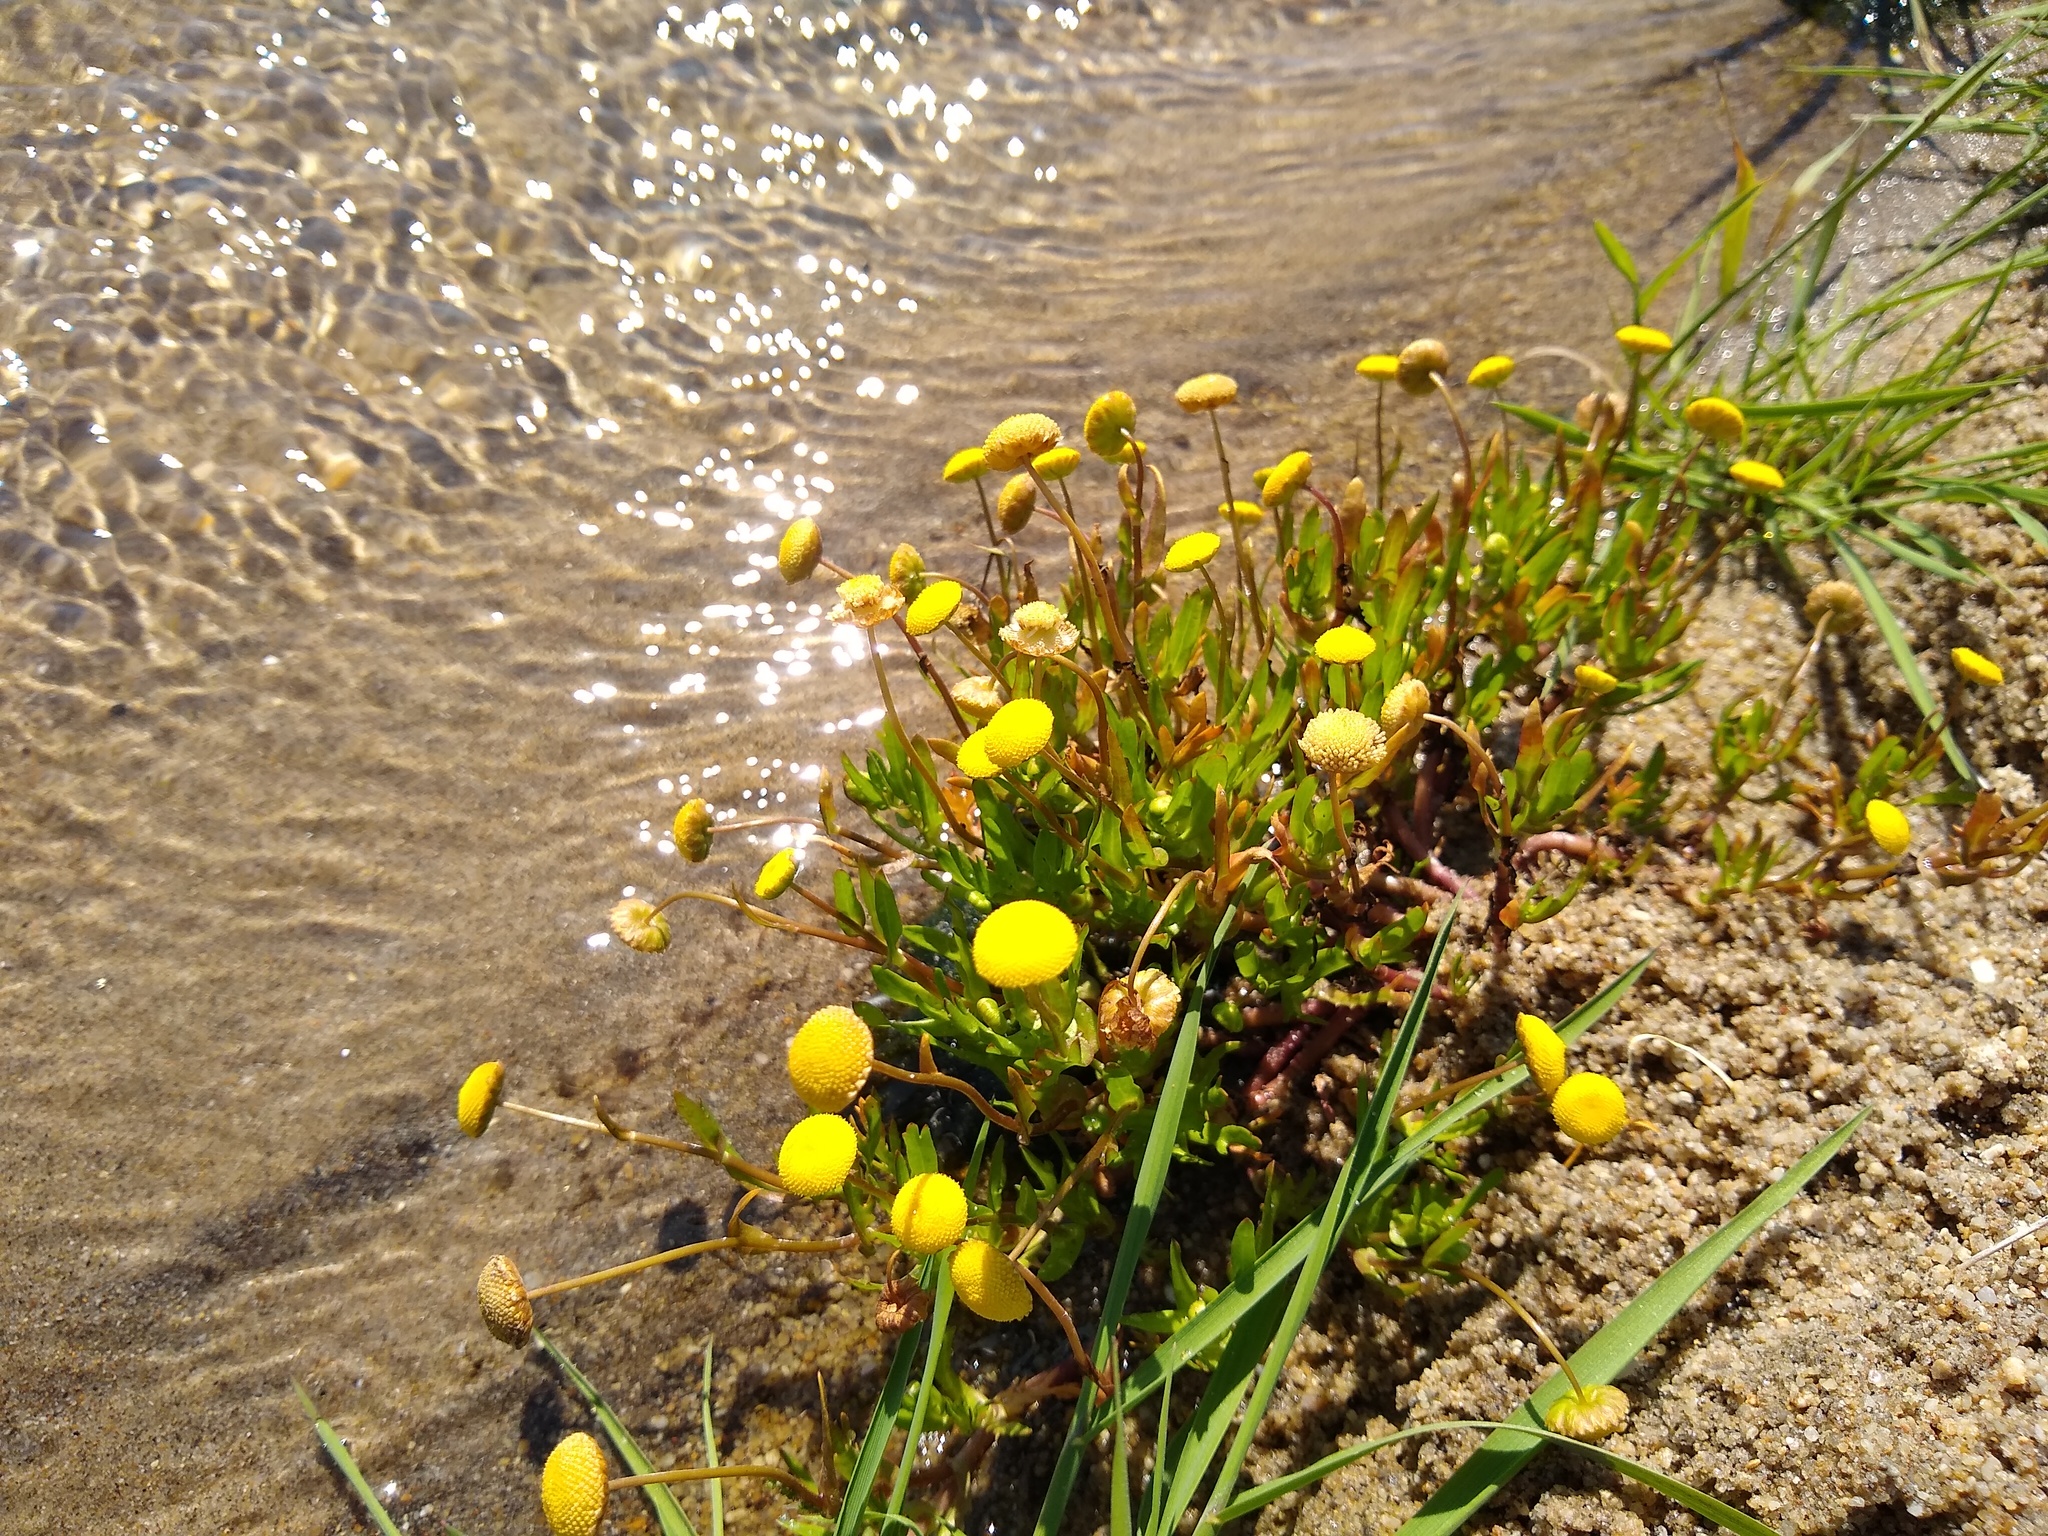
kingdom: Plantae
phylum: Tracheophyta
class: Magnoliopsida
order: Asterales
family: Asteraceae
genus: Cotula
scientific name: Cotula coronopifolia
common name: Buttonweed
